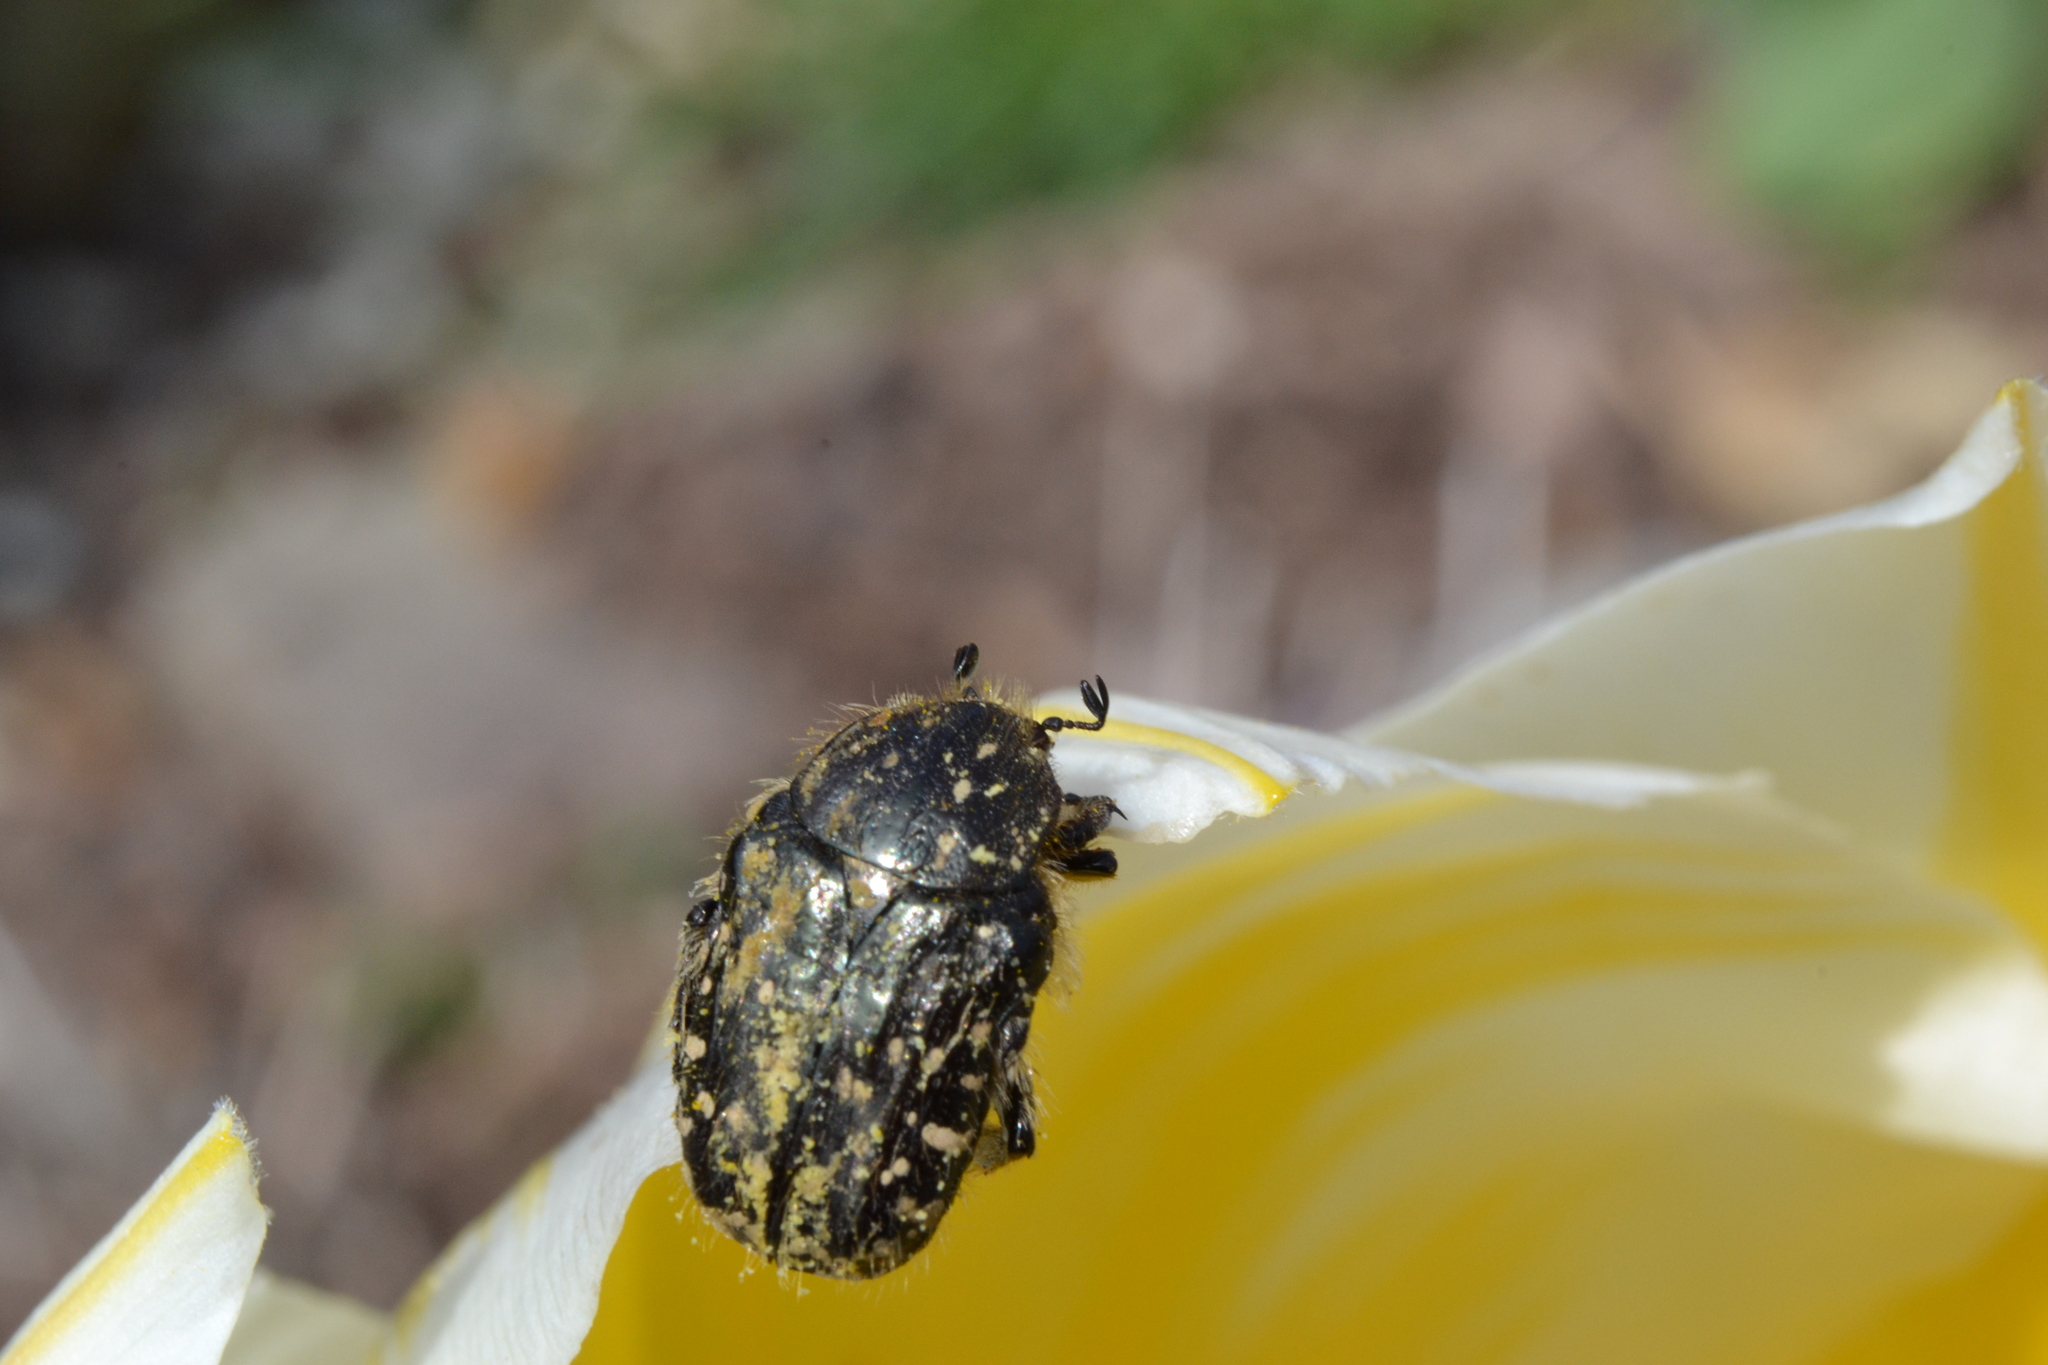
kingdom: Animalia
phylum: Arthropoda
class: Insecta
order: Coleoptera
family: Scarabaeidae
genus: Oxythyrea
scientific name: Oxythyrea funesta
